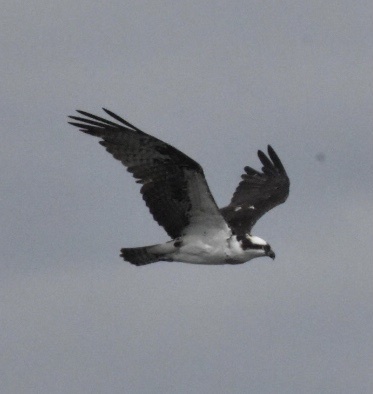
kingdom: Animalia
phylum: Chordata
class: Aves
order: Accipitriformes
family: Pandionidae
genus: Pandion
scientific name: Pandion haliaetus
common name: Osprey
